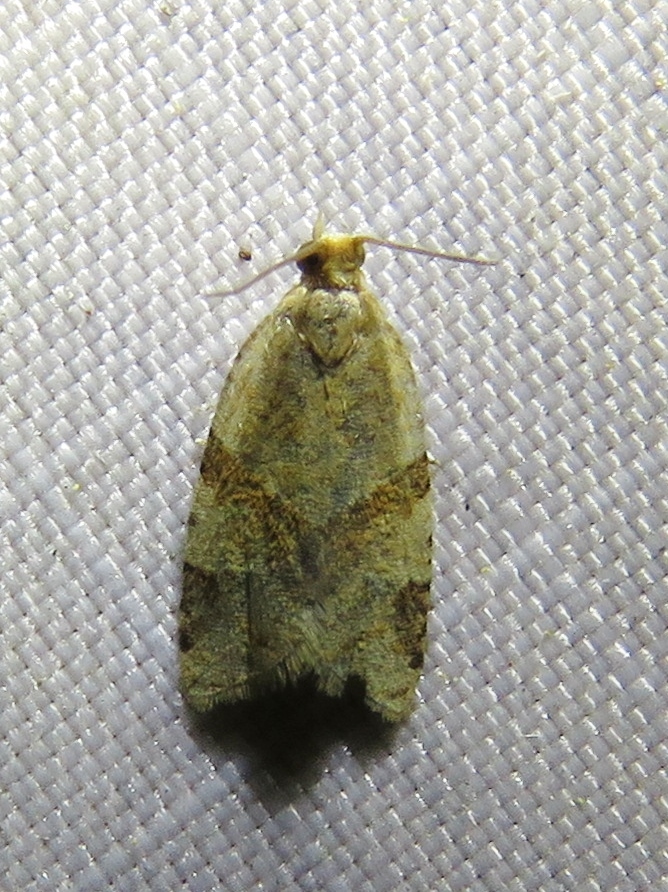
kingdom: Animalia
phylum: Arthropoda
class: Insecta
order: Lepidoptera
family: Tortricidae
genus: Clepsis
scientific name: Clepsis peritana
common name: Garden tortrix
